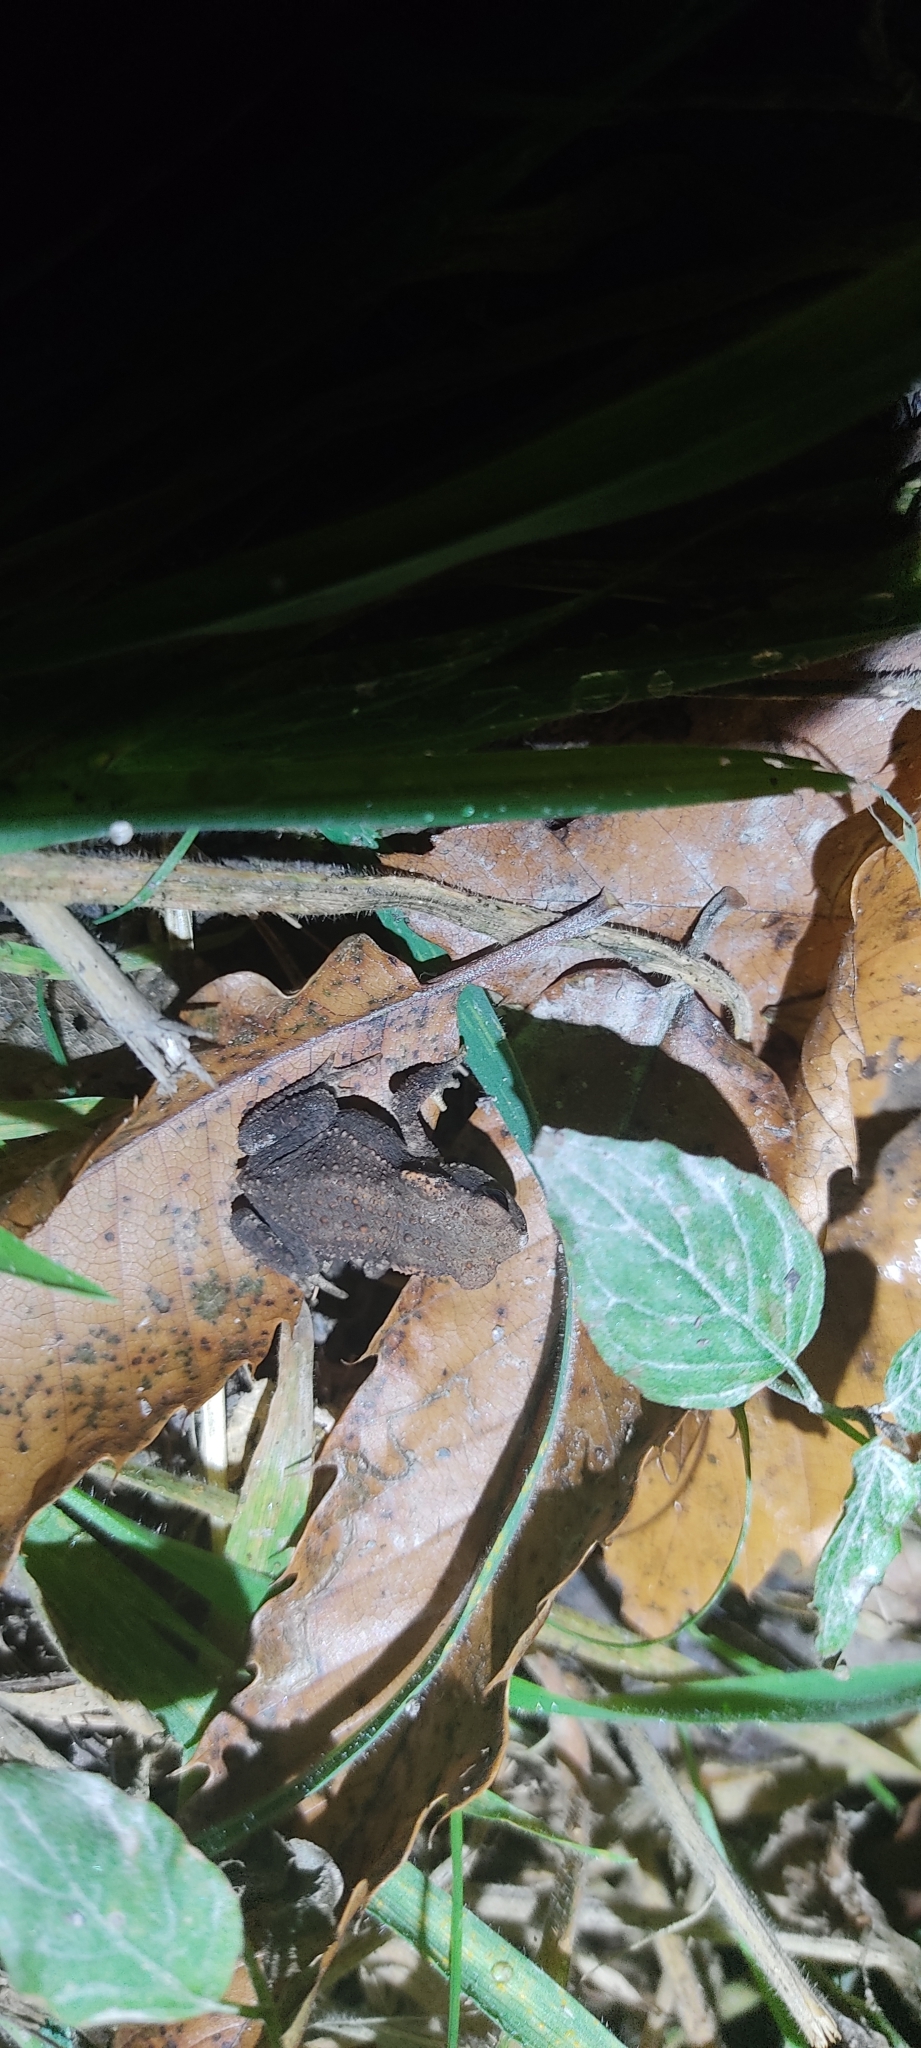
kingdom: Animalia
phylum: Chordata
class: Amphibia
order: Anura
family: Bufonidae
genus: Bufo
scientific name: Bufo spinosus
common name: Western common toad
